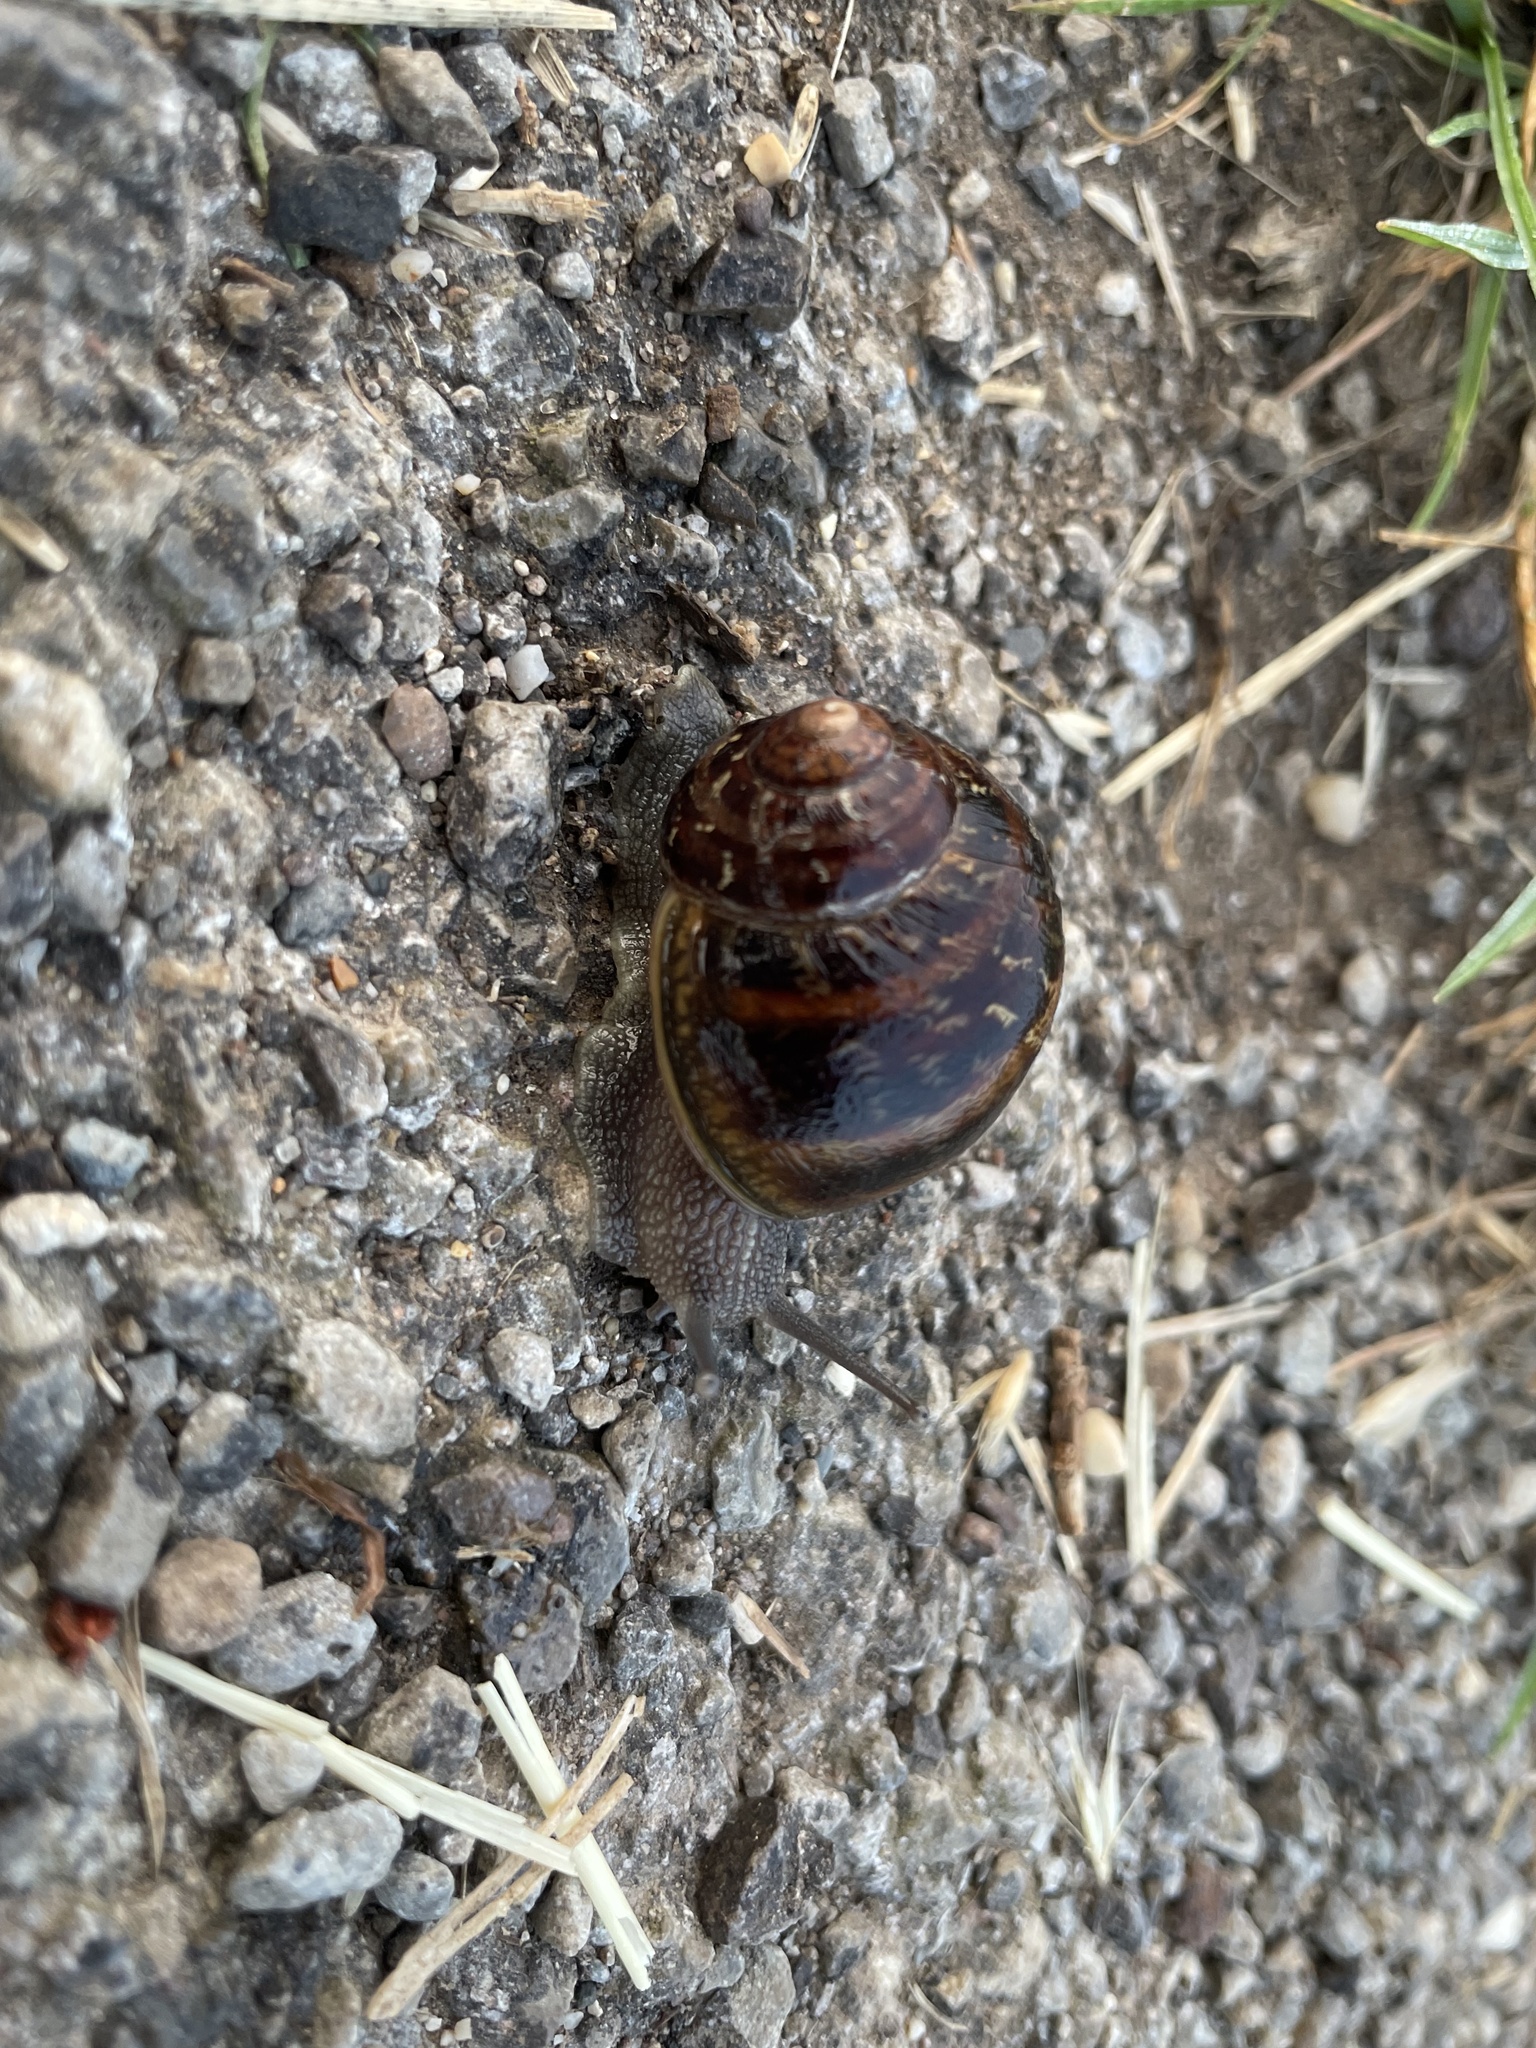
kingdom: Animalia
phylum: Mollusca
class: Gastropoda
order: Stylommatophora
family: Helicidae
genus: Cornu
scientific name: Cornu aspersum
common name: Brown garden snail
